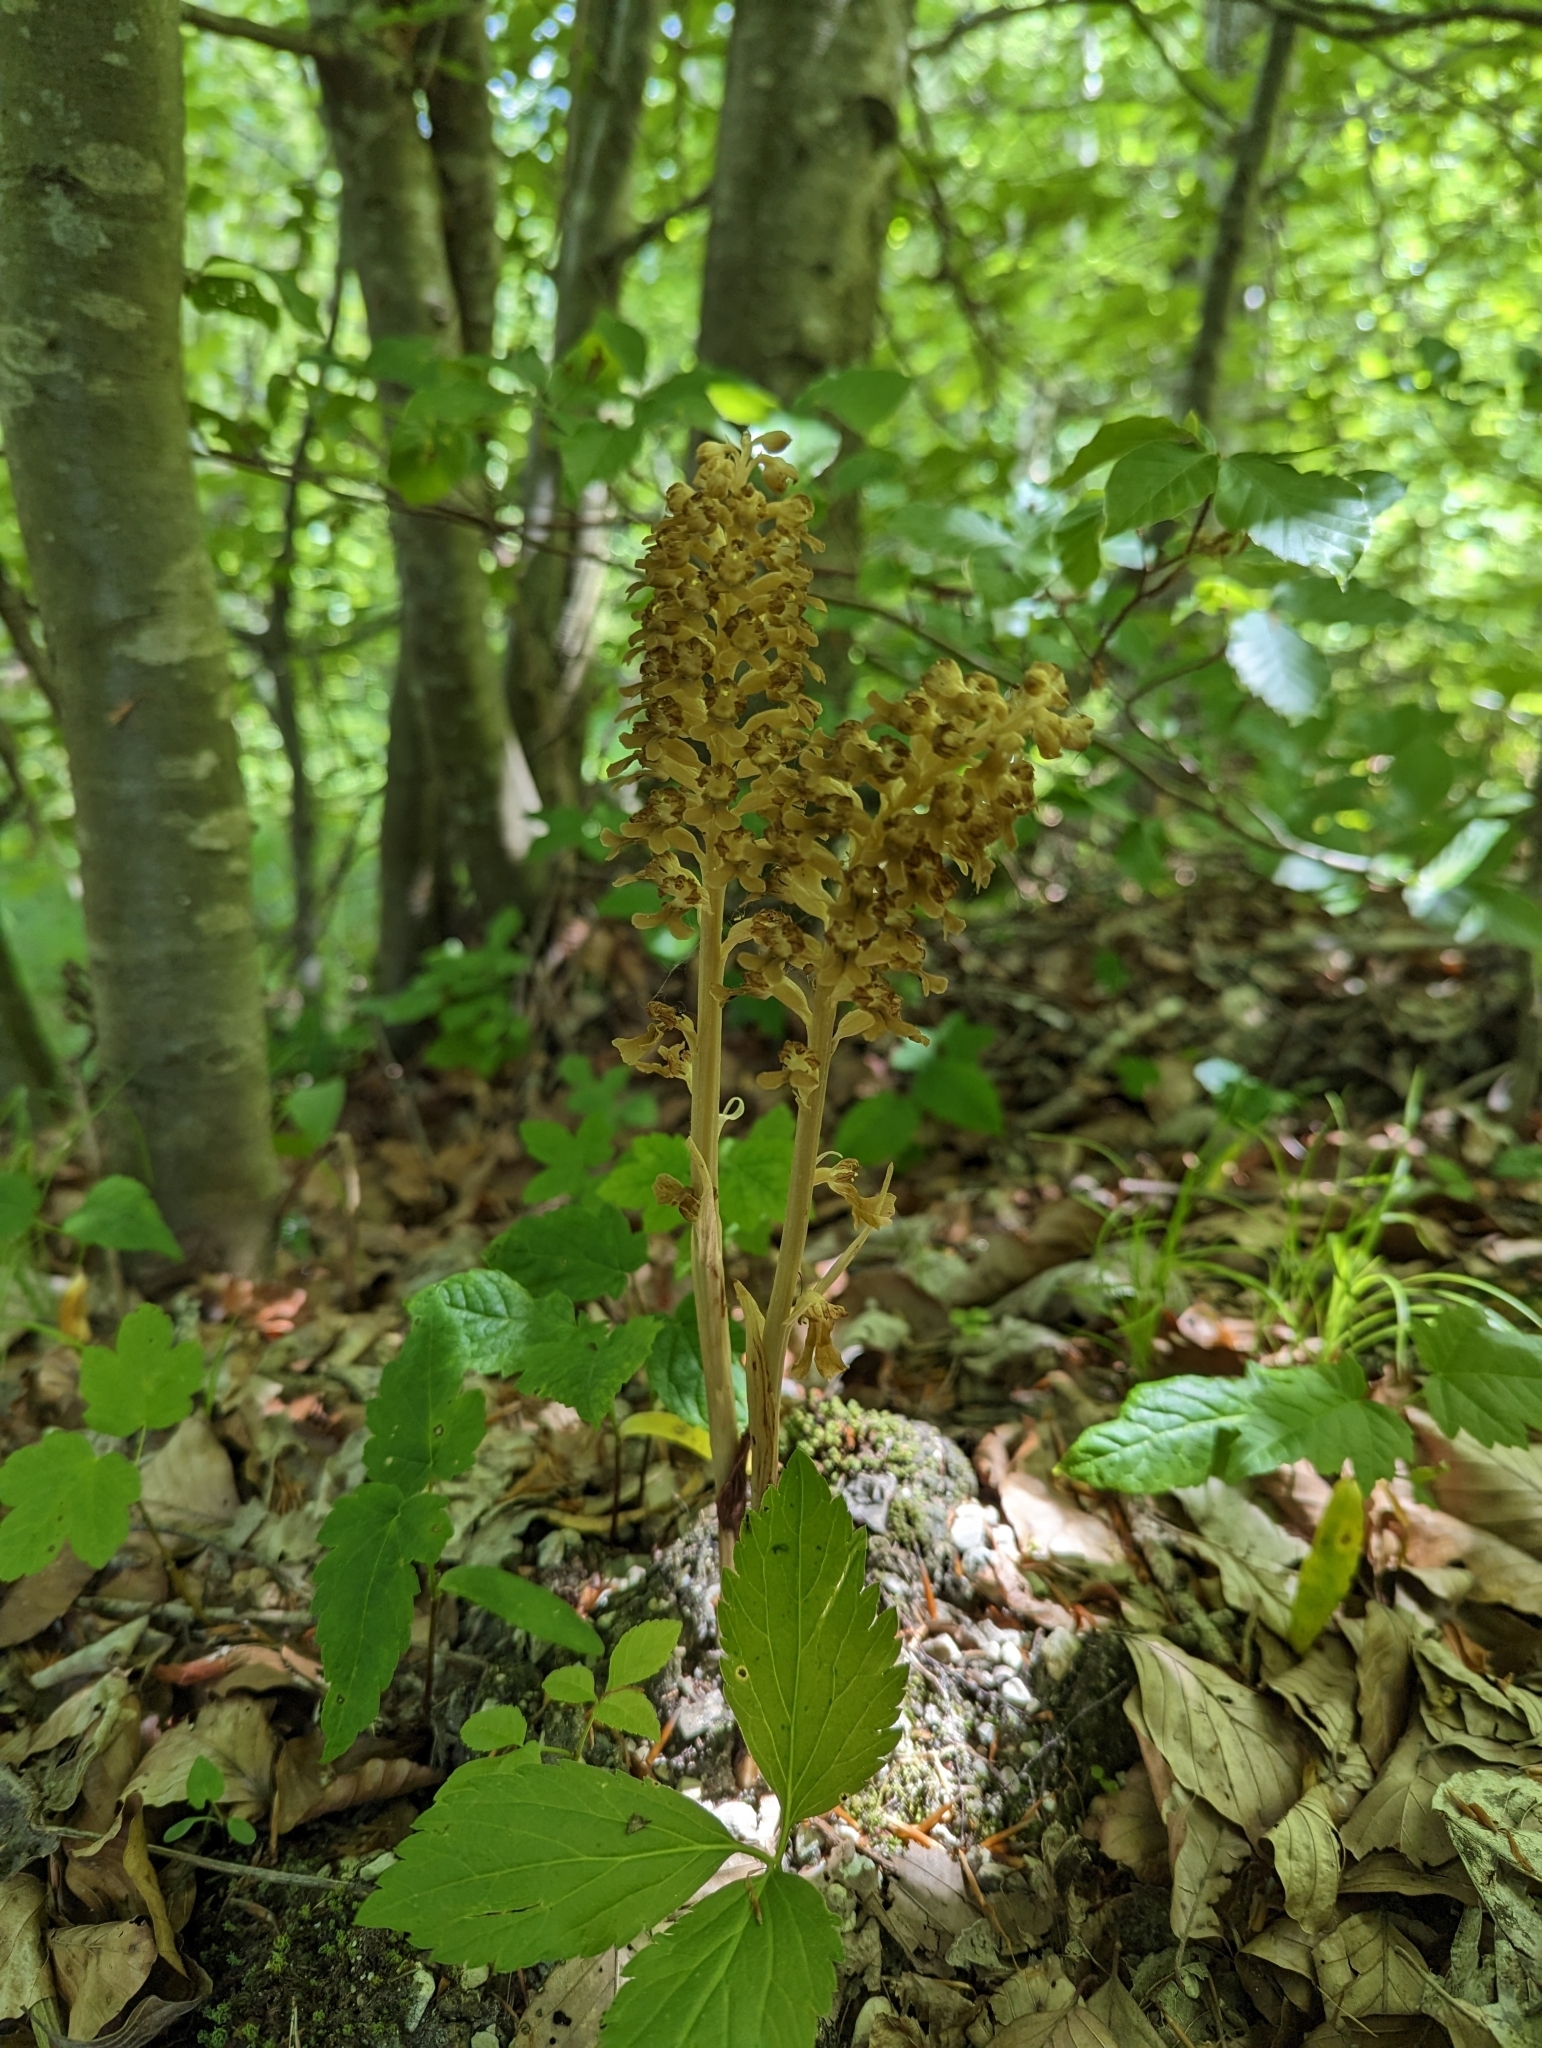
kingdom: Plantae
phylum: Tracheophyta
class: Liliopsida
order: Asparagales
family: Orchidaceae
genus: Neottia
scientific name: Neottia nidus-avis
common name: Bird's-nest orchid
